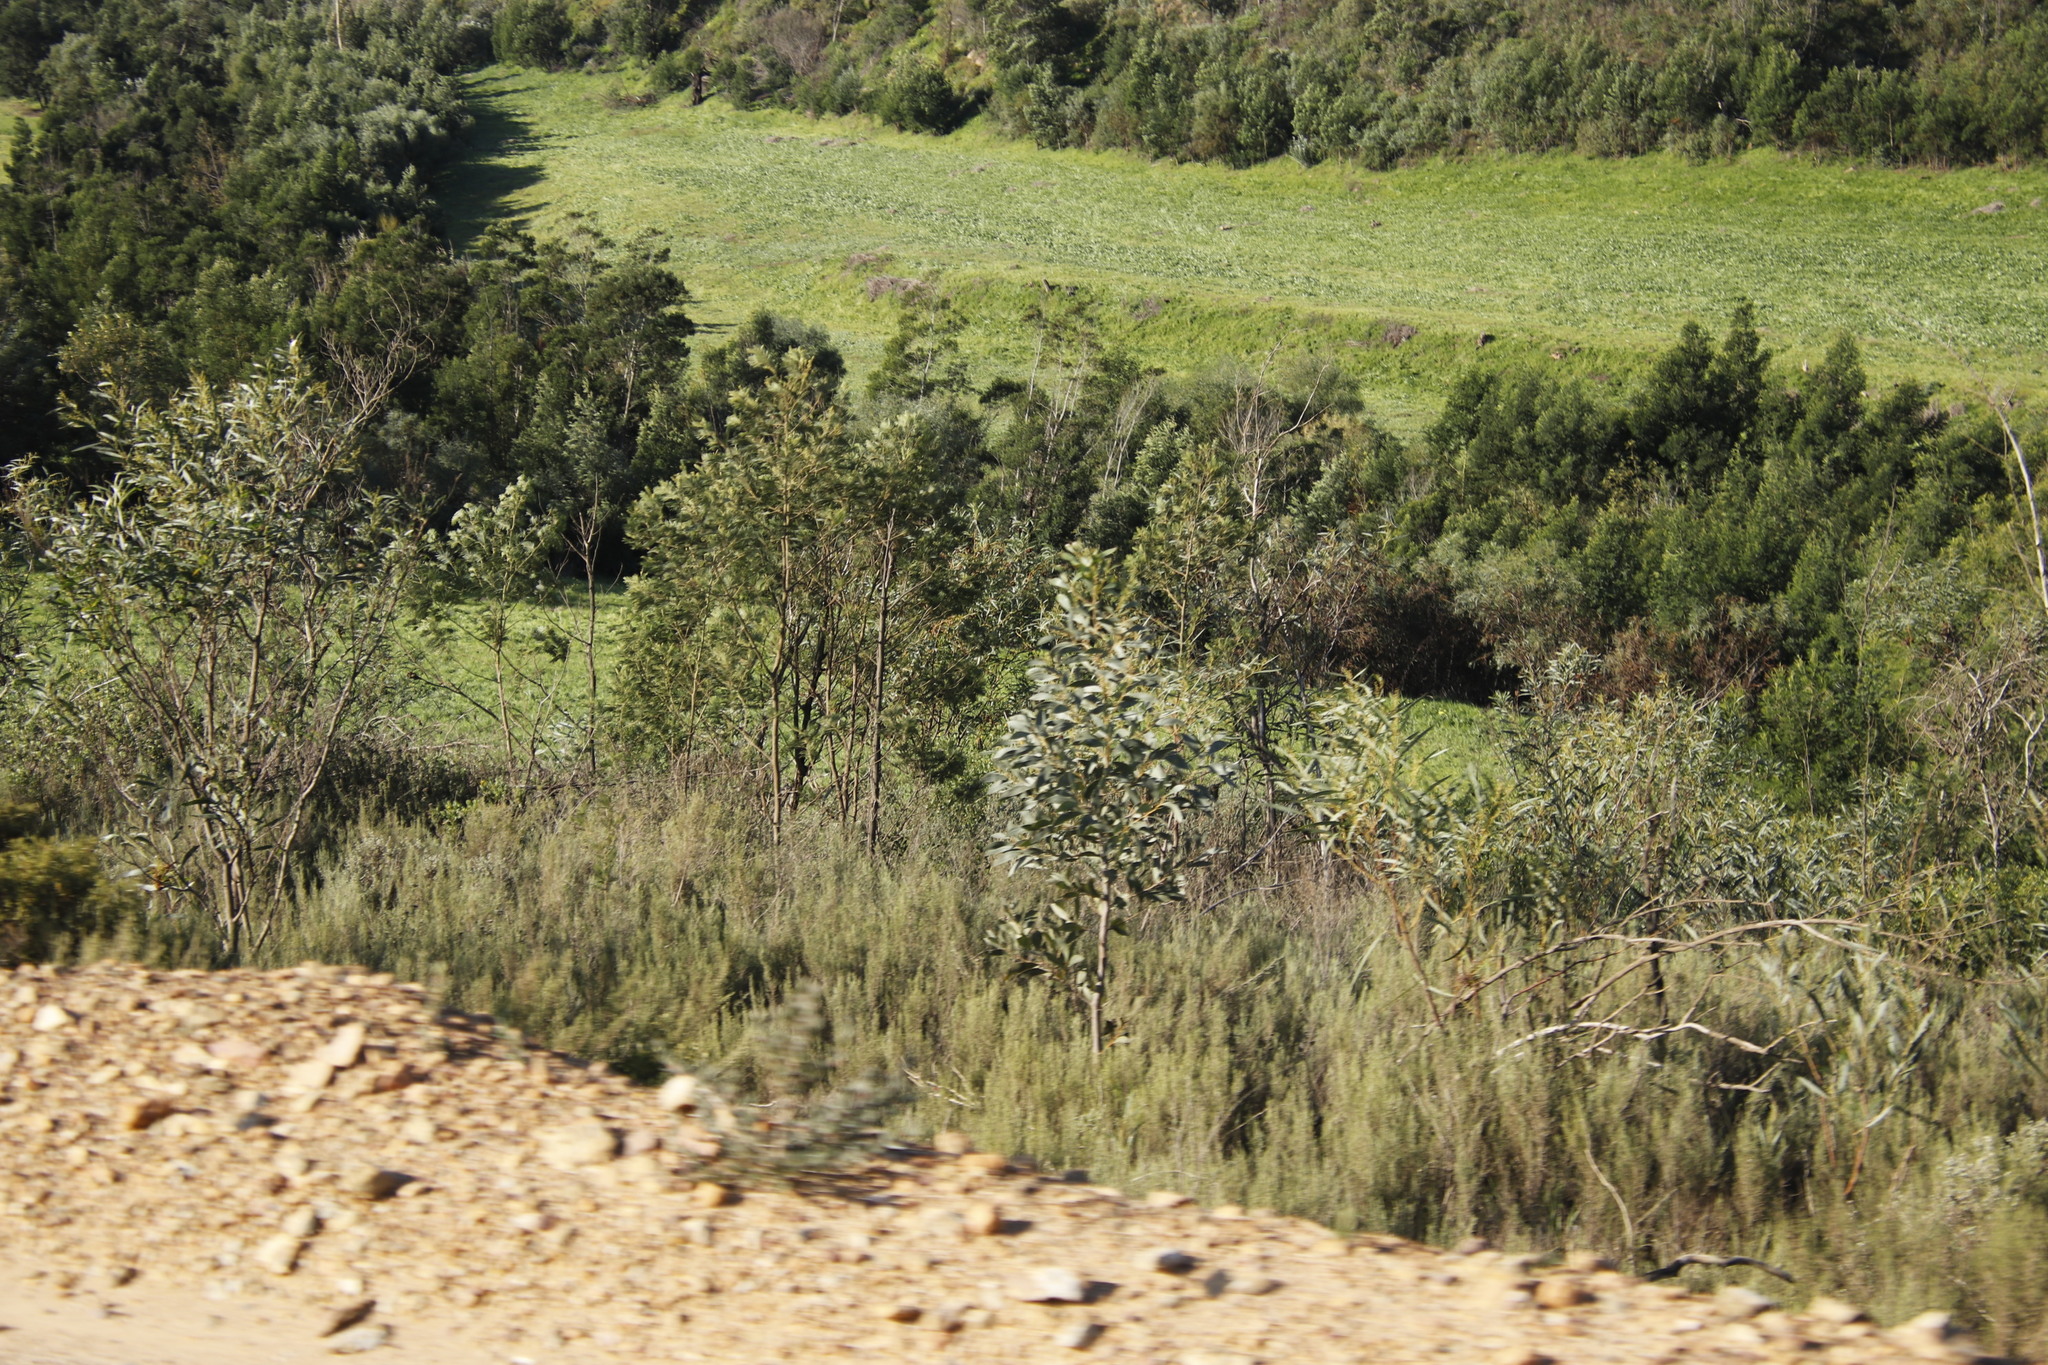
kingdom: Plantae
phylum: Tracheophyta
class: Magnoliopsida
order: Fabales
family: Fabaceae
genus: Acacia
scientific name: Acacia pycnantha
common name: Golden wattle
